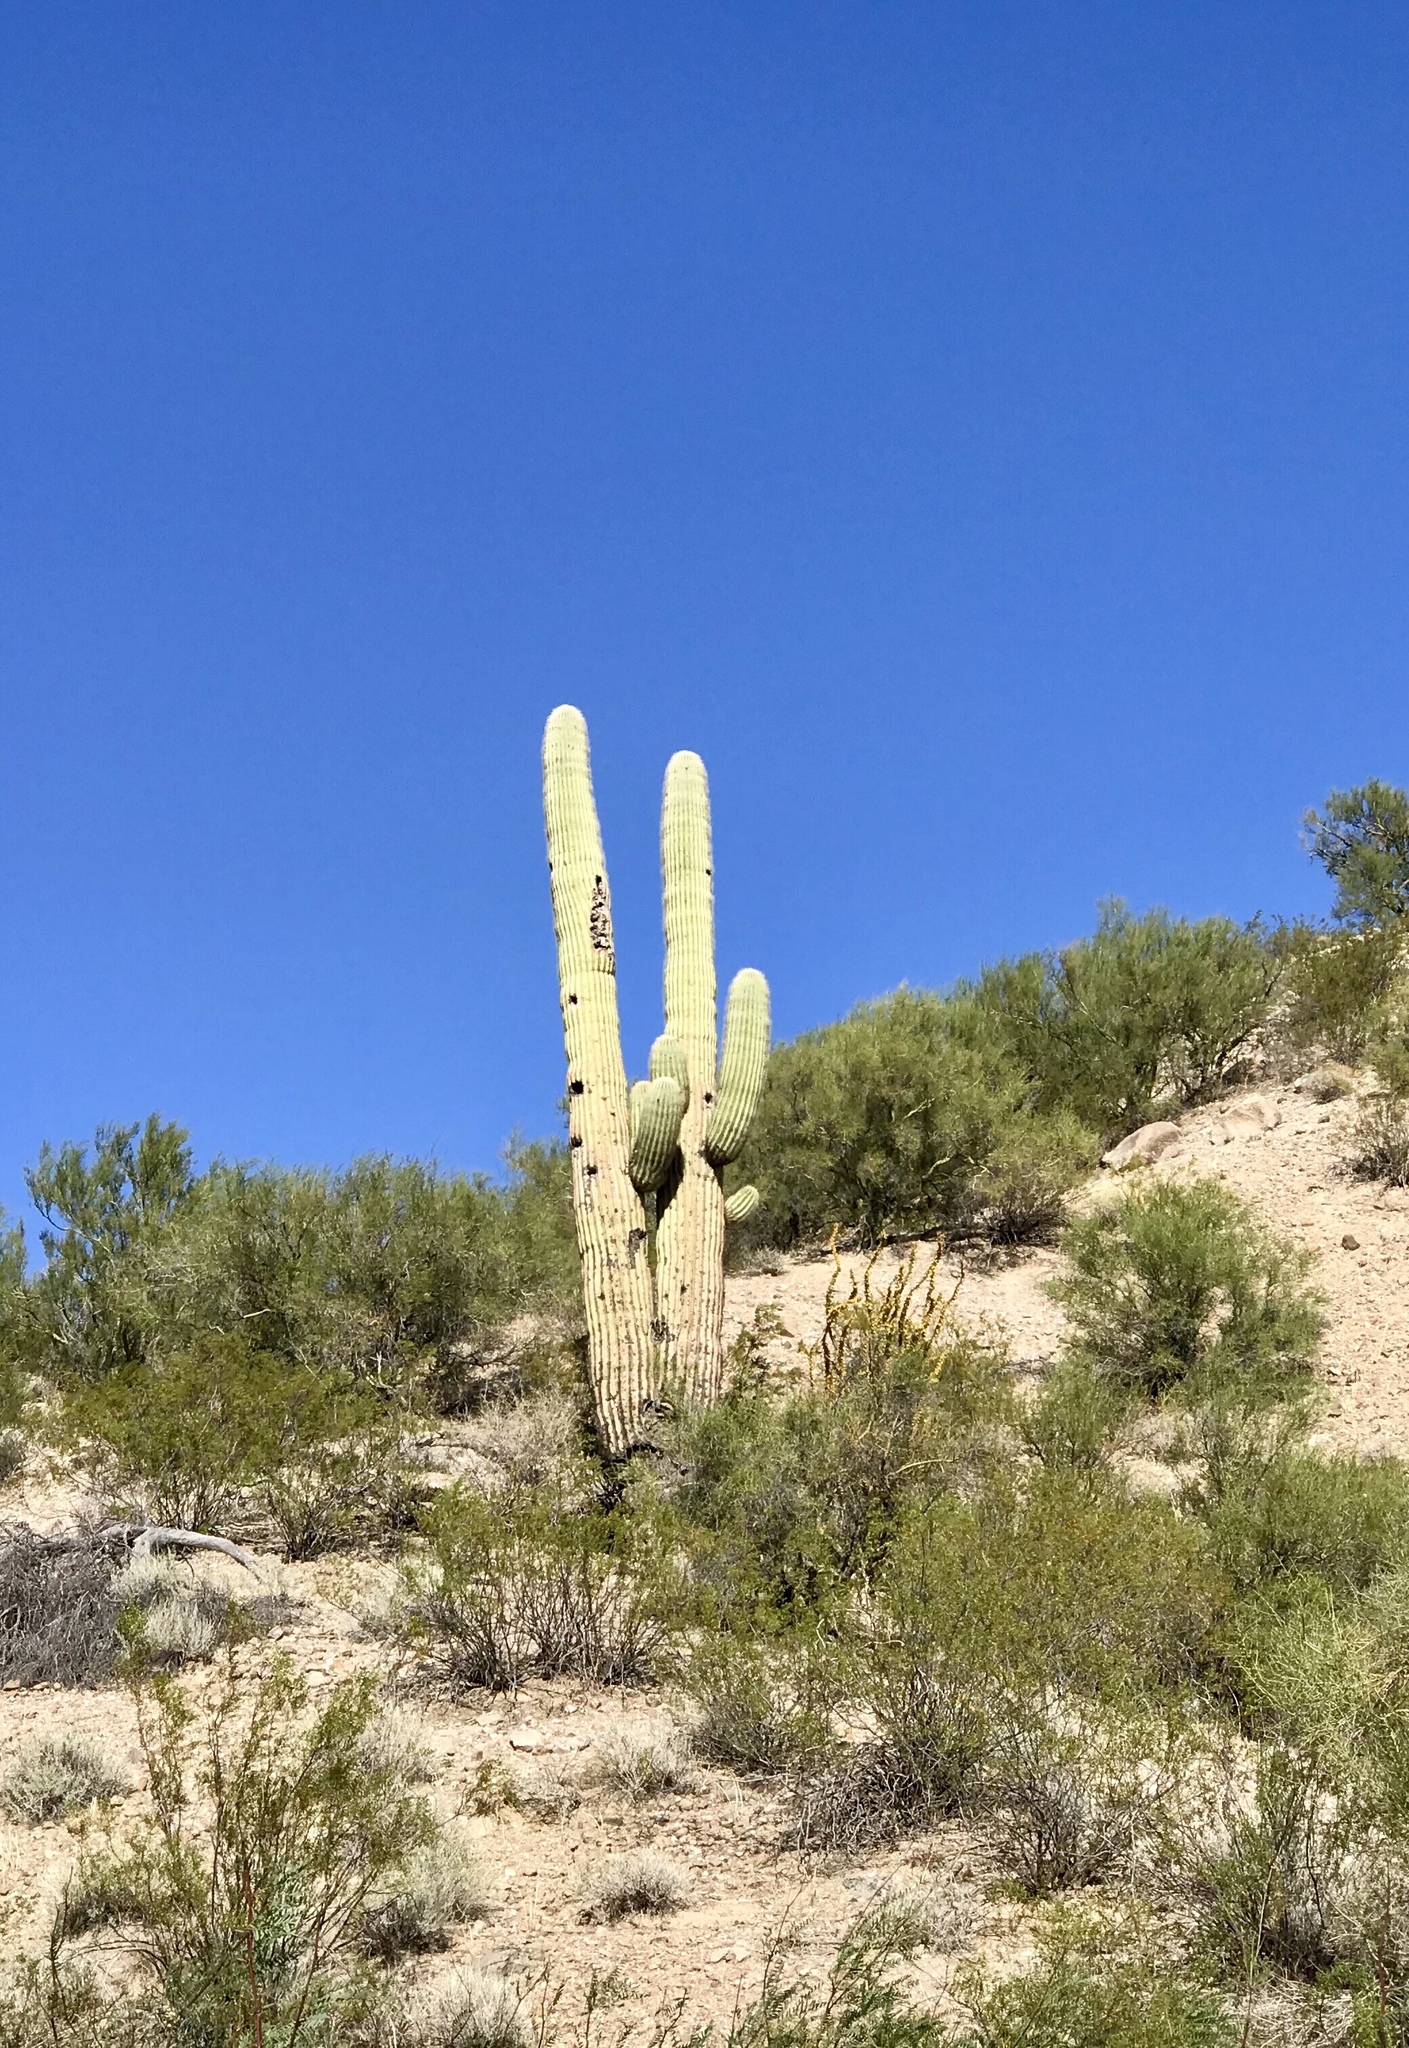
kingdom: Plantae
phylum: Tracheophyta
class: Magnoliopsida
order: Caryophyllales
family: Cactaceae
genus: Carnegiea
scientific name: Carnegiea gigantea
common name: Saguaro
